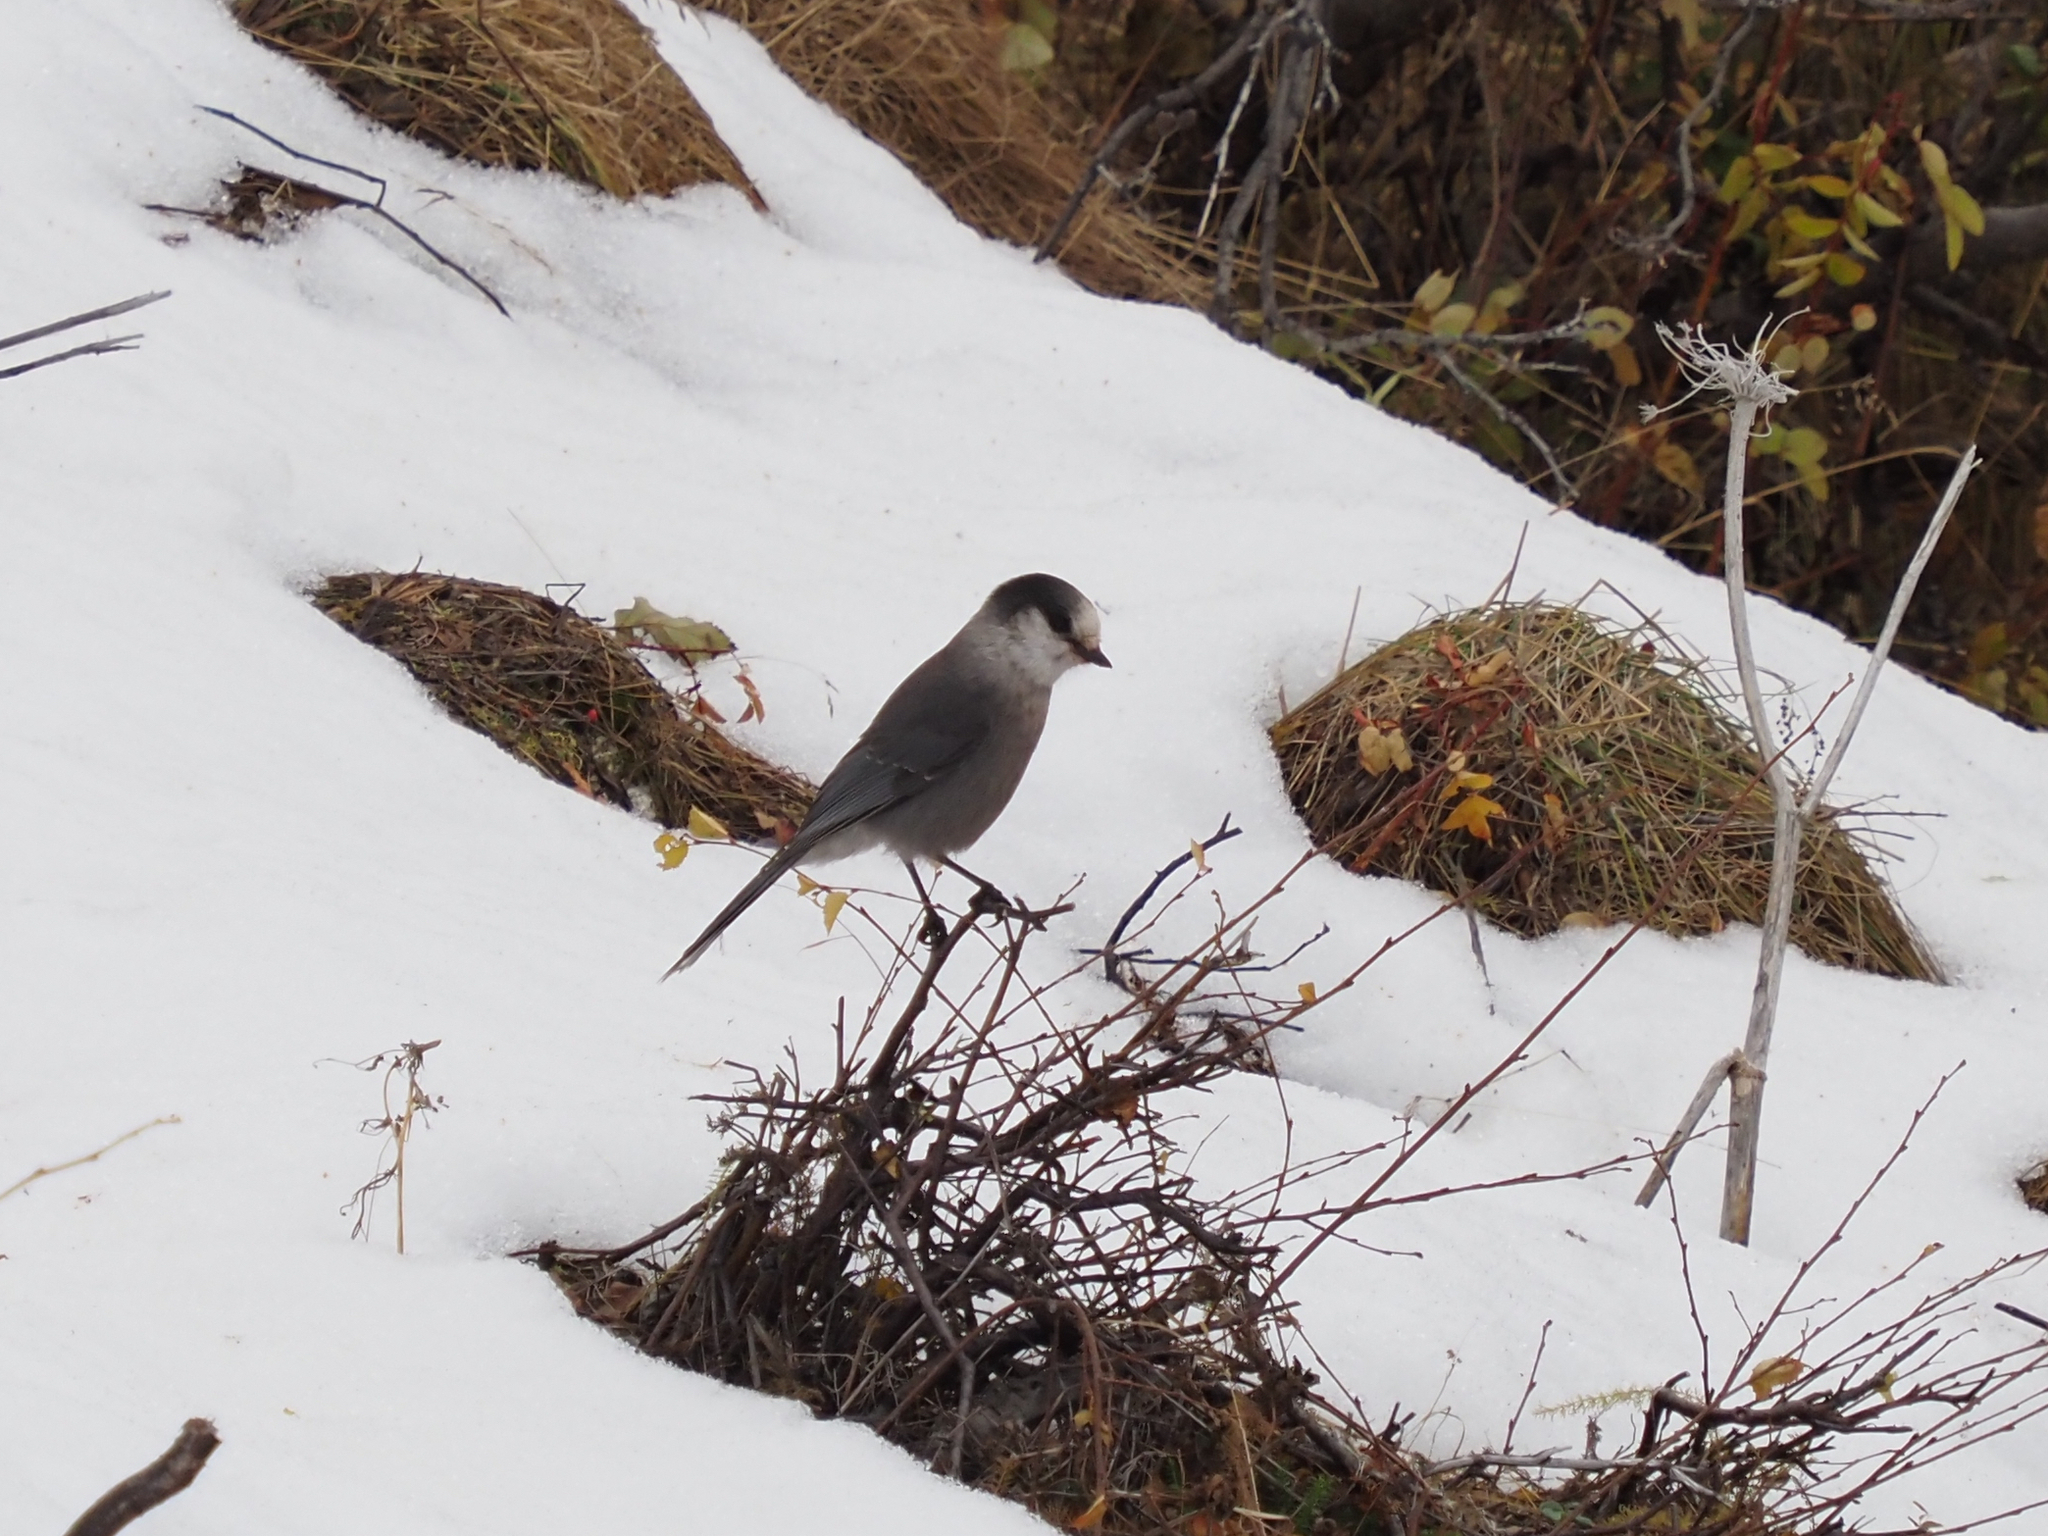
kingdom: Animalia
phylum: Chordata
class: Aves
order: Passeriformes
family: Corvidae
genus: Perisoreus
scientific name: Perisoreus canadensis
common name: Gray jay
